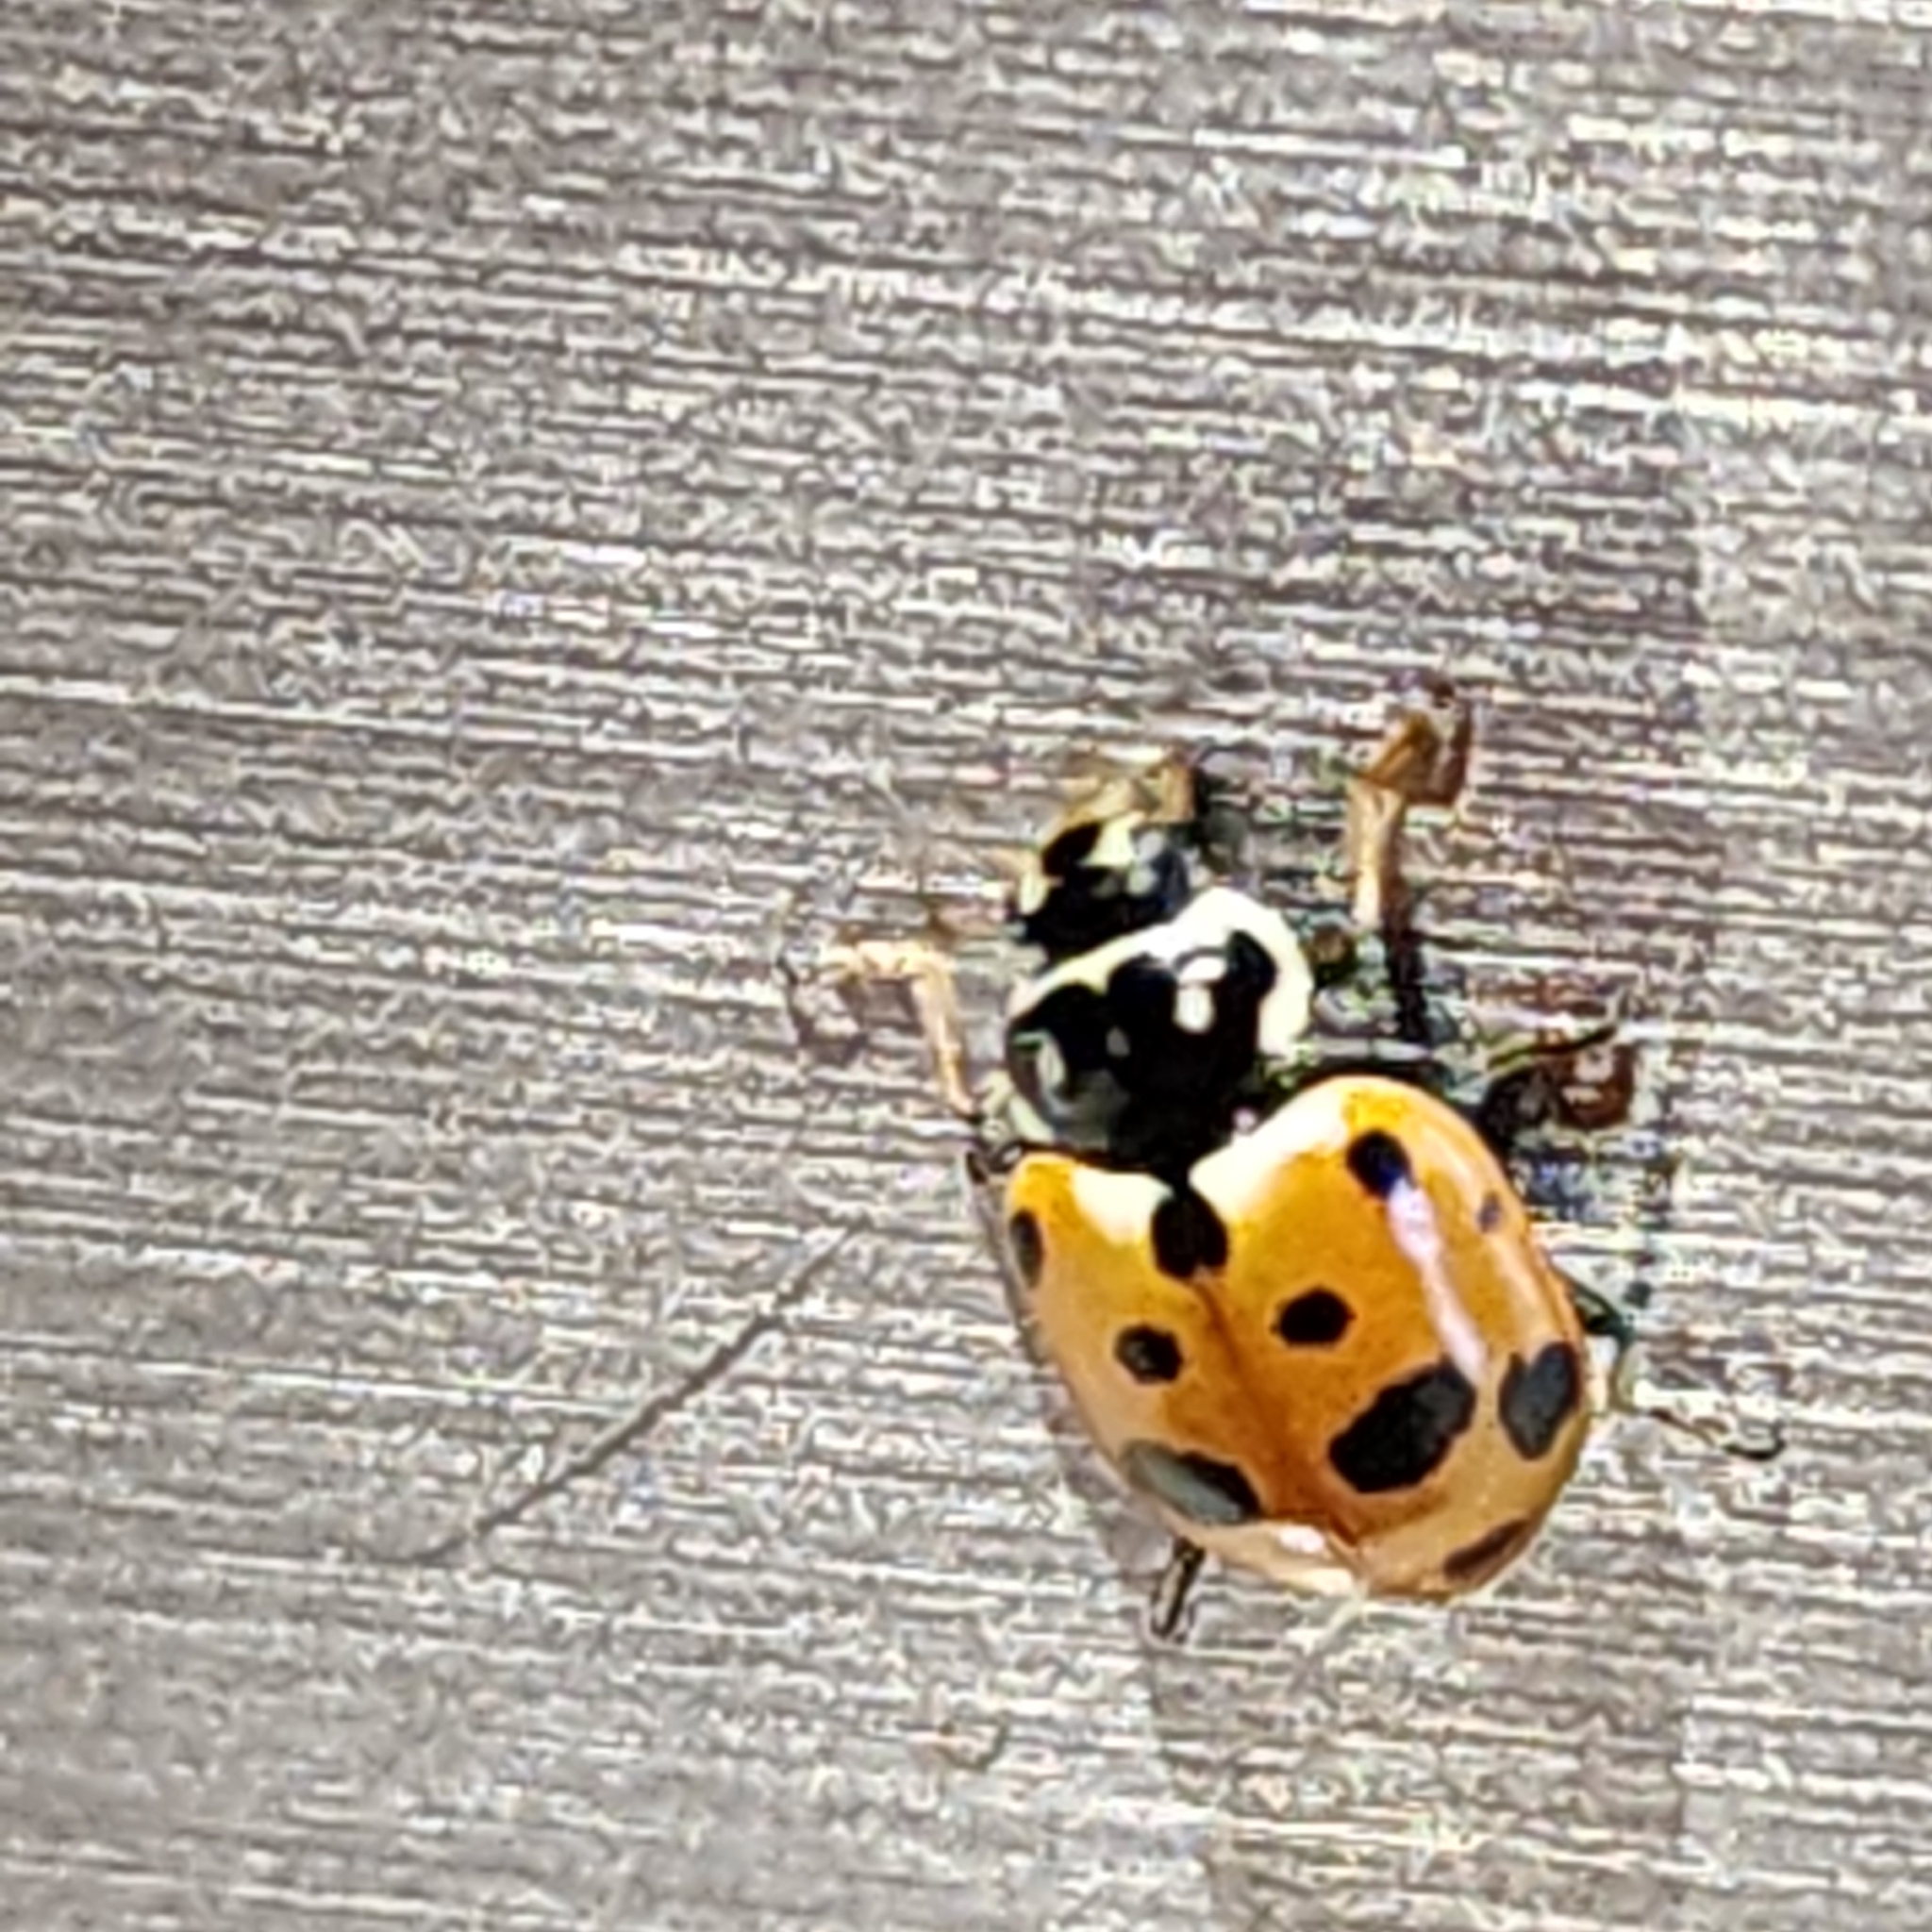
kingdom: Animalia
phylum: Arthropoda
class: Insecta
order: Coleoptera
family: Coccinellidae
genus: Hippodamia
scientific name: Hippodamia variegata
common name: Ladybird beetle
